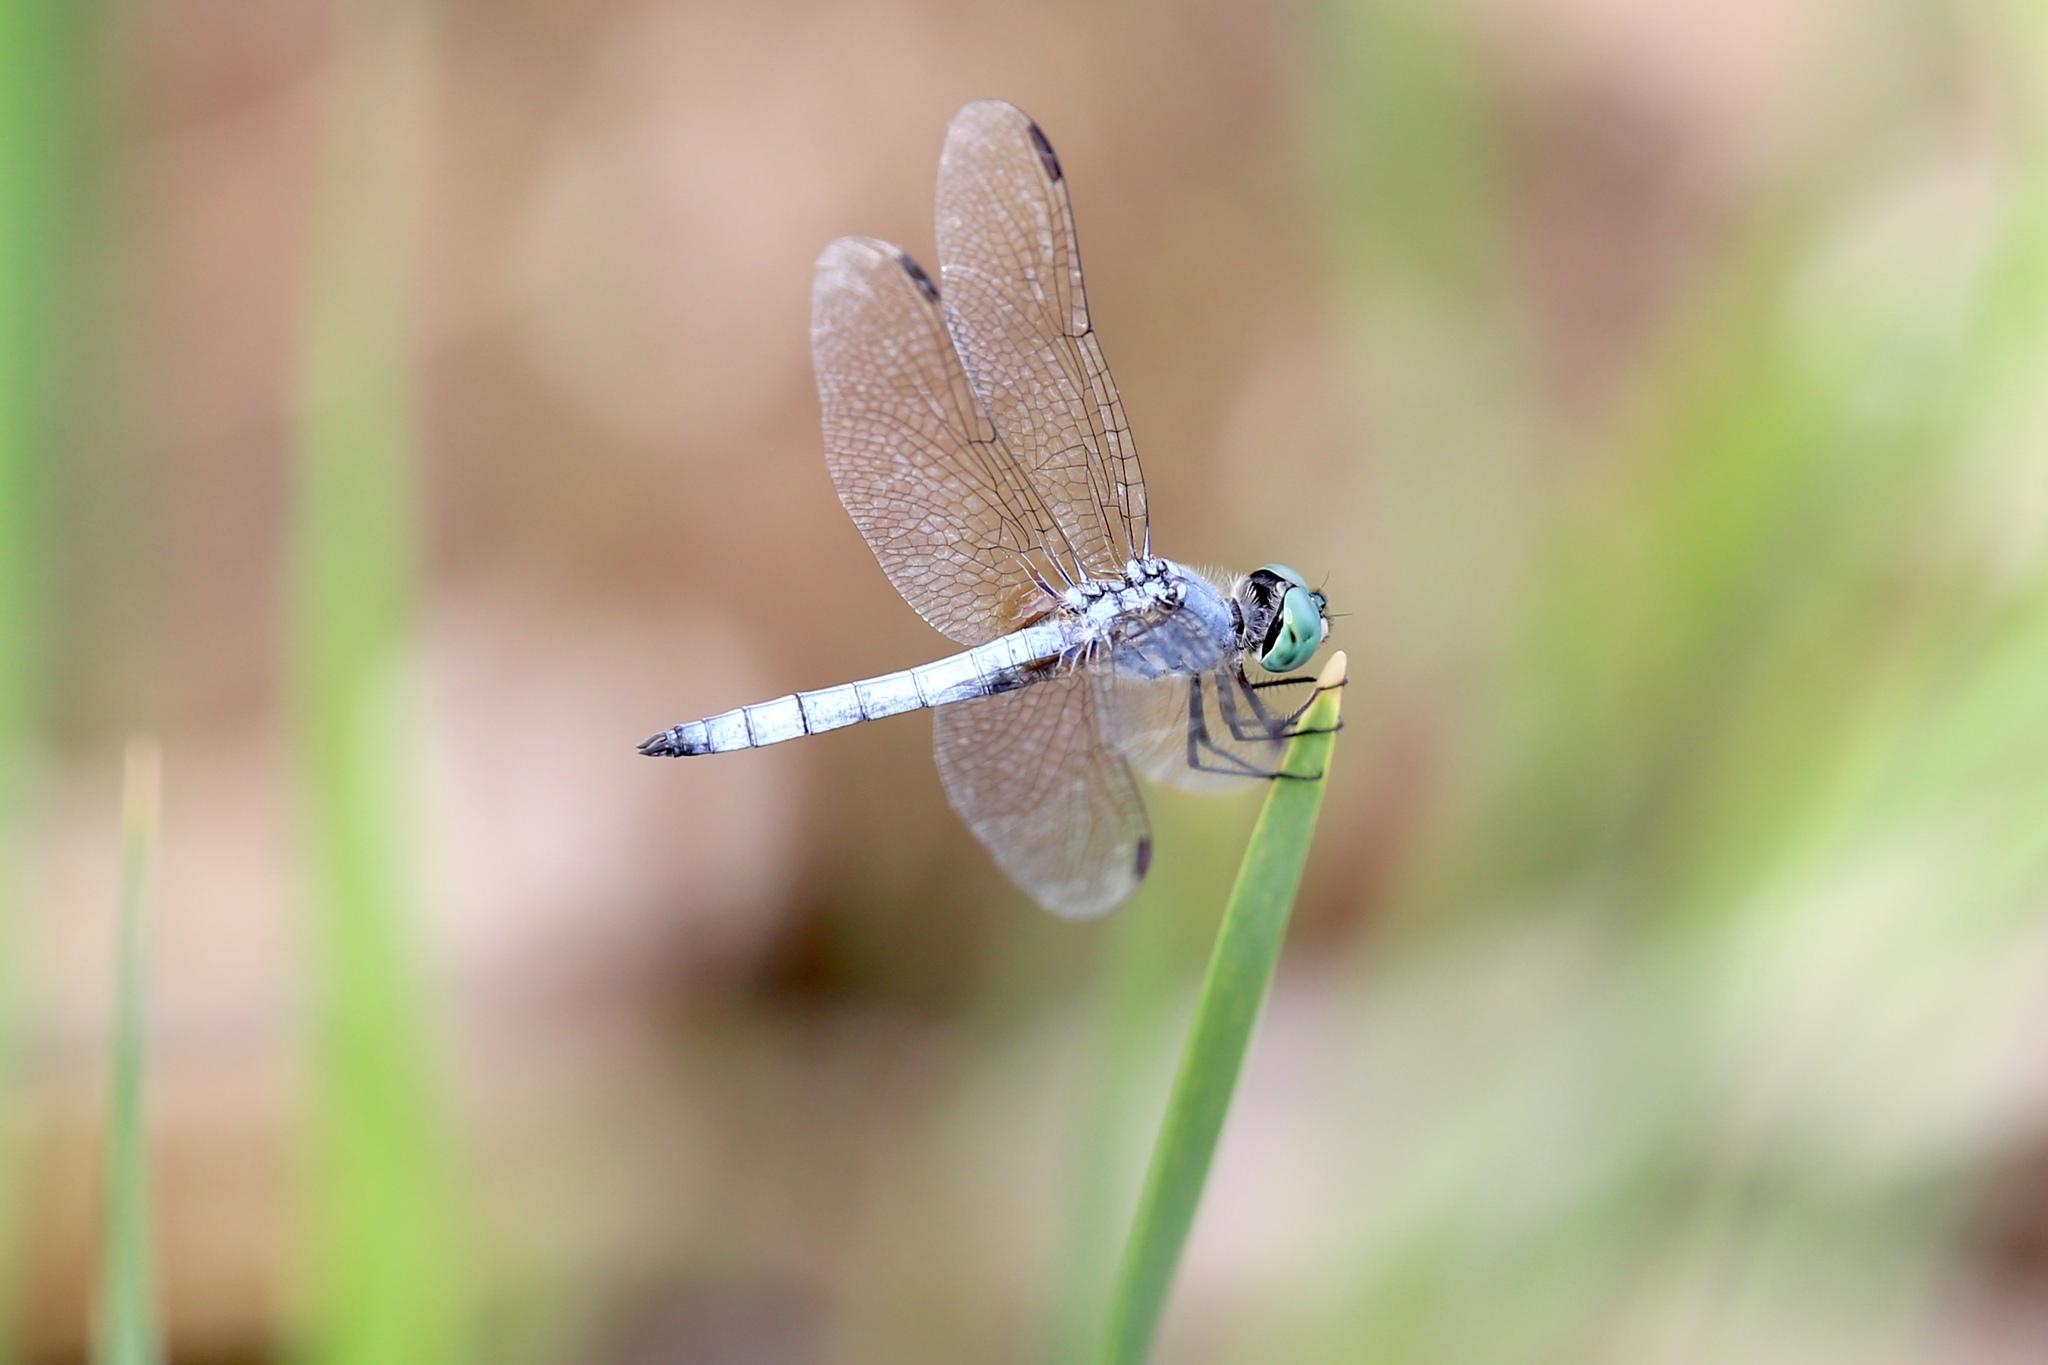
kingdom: Animalia
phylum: Arthropoda
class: Insecta
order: Odonata
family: Libellulidae
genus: Pachydiplax
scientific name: Pachydiplax longipennis
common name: Blue dasher
